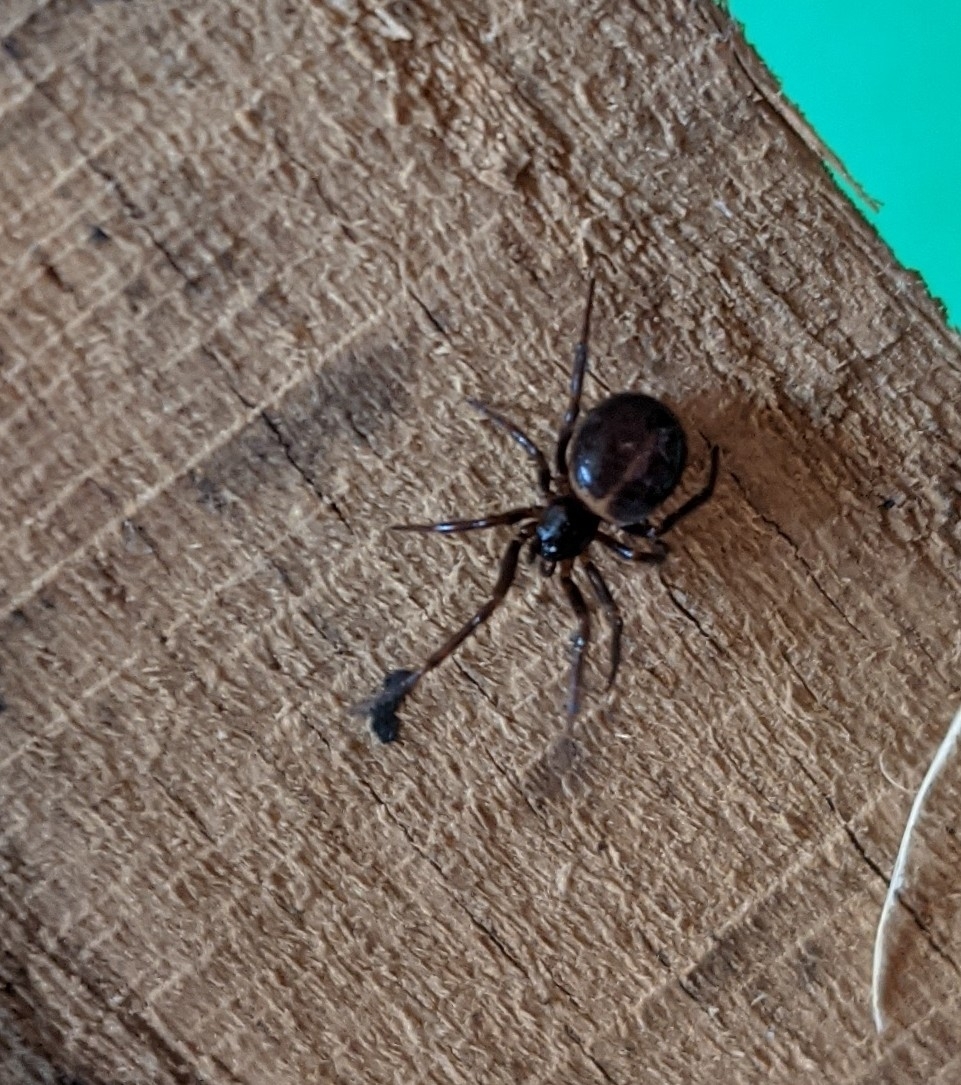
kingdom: Animalia
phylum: Arthropoda
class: Arachnida
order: Araneae
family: Theridiidae
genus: Steatoda
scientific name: Steatoda borealis
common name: Boreal combfoot
